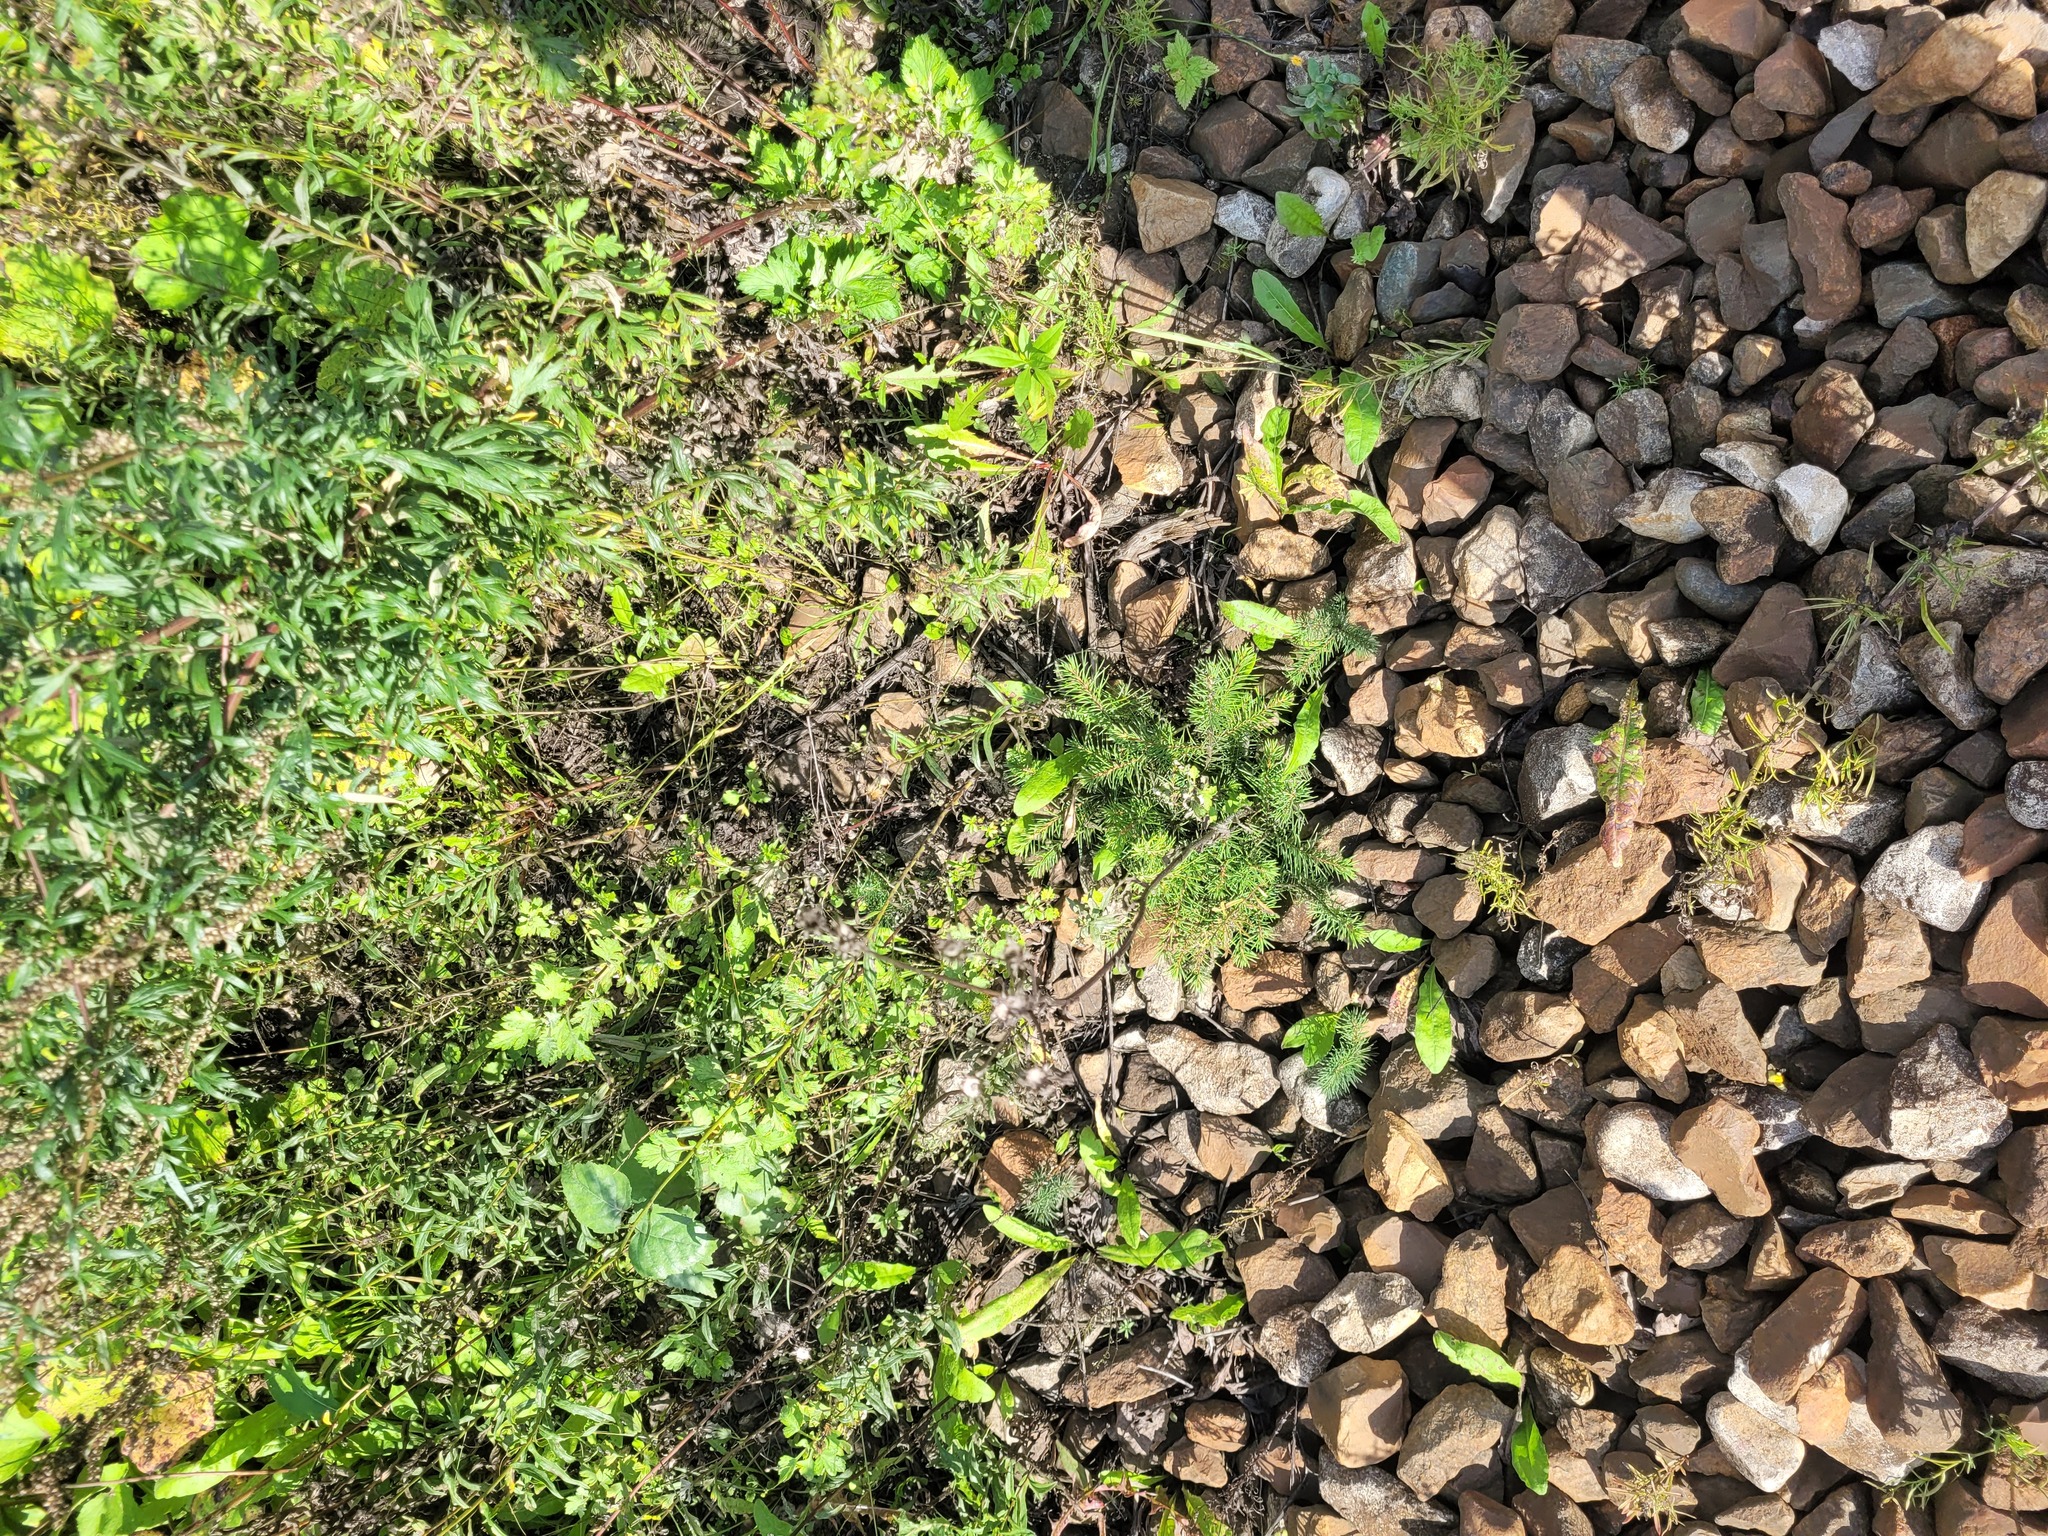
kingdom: Plantae
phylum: Tracheophyta
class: Pinopsida
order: Pinales
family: Pinaceae
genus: Picea
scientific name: Picea abies
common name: Norway spruce
